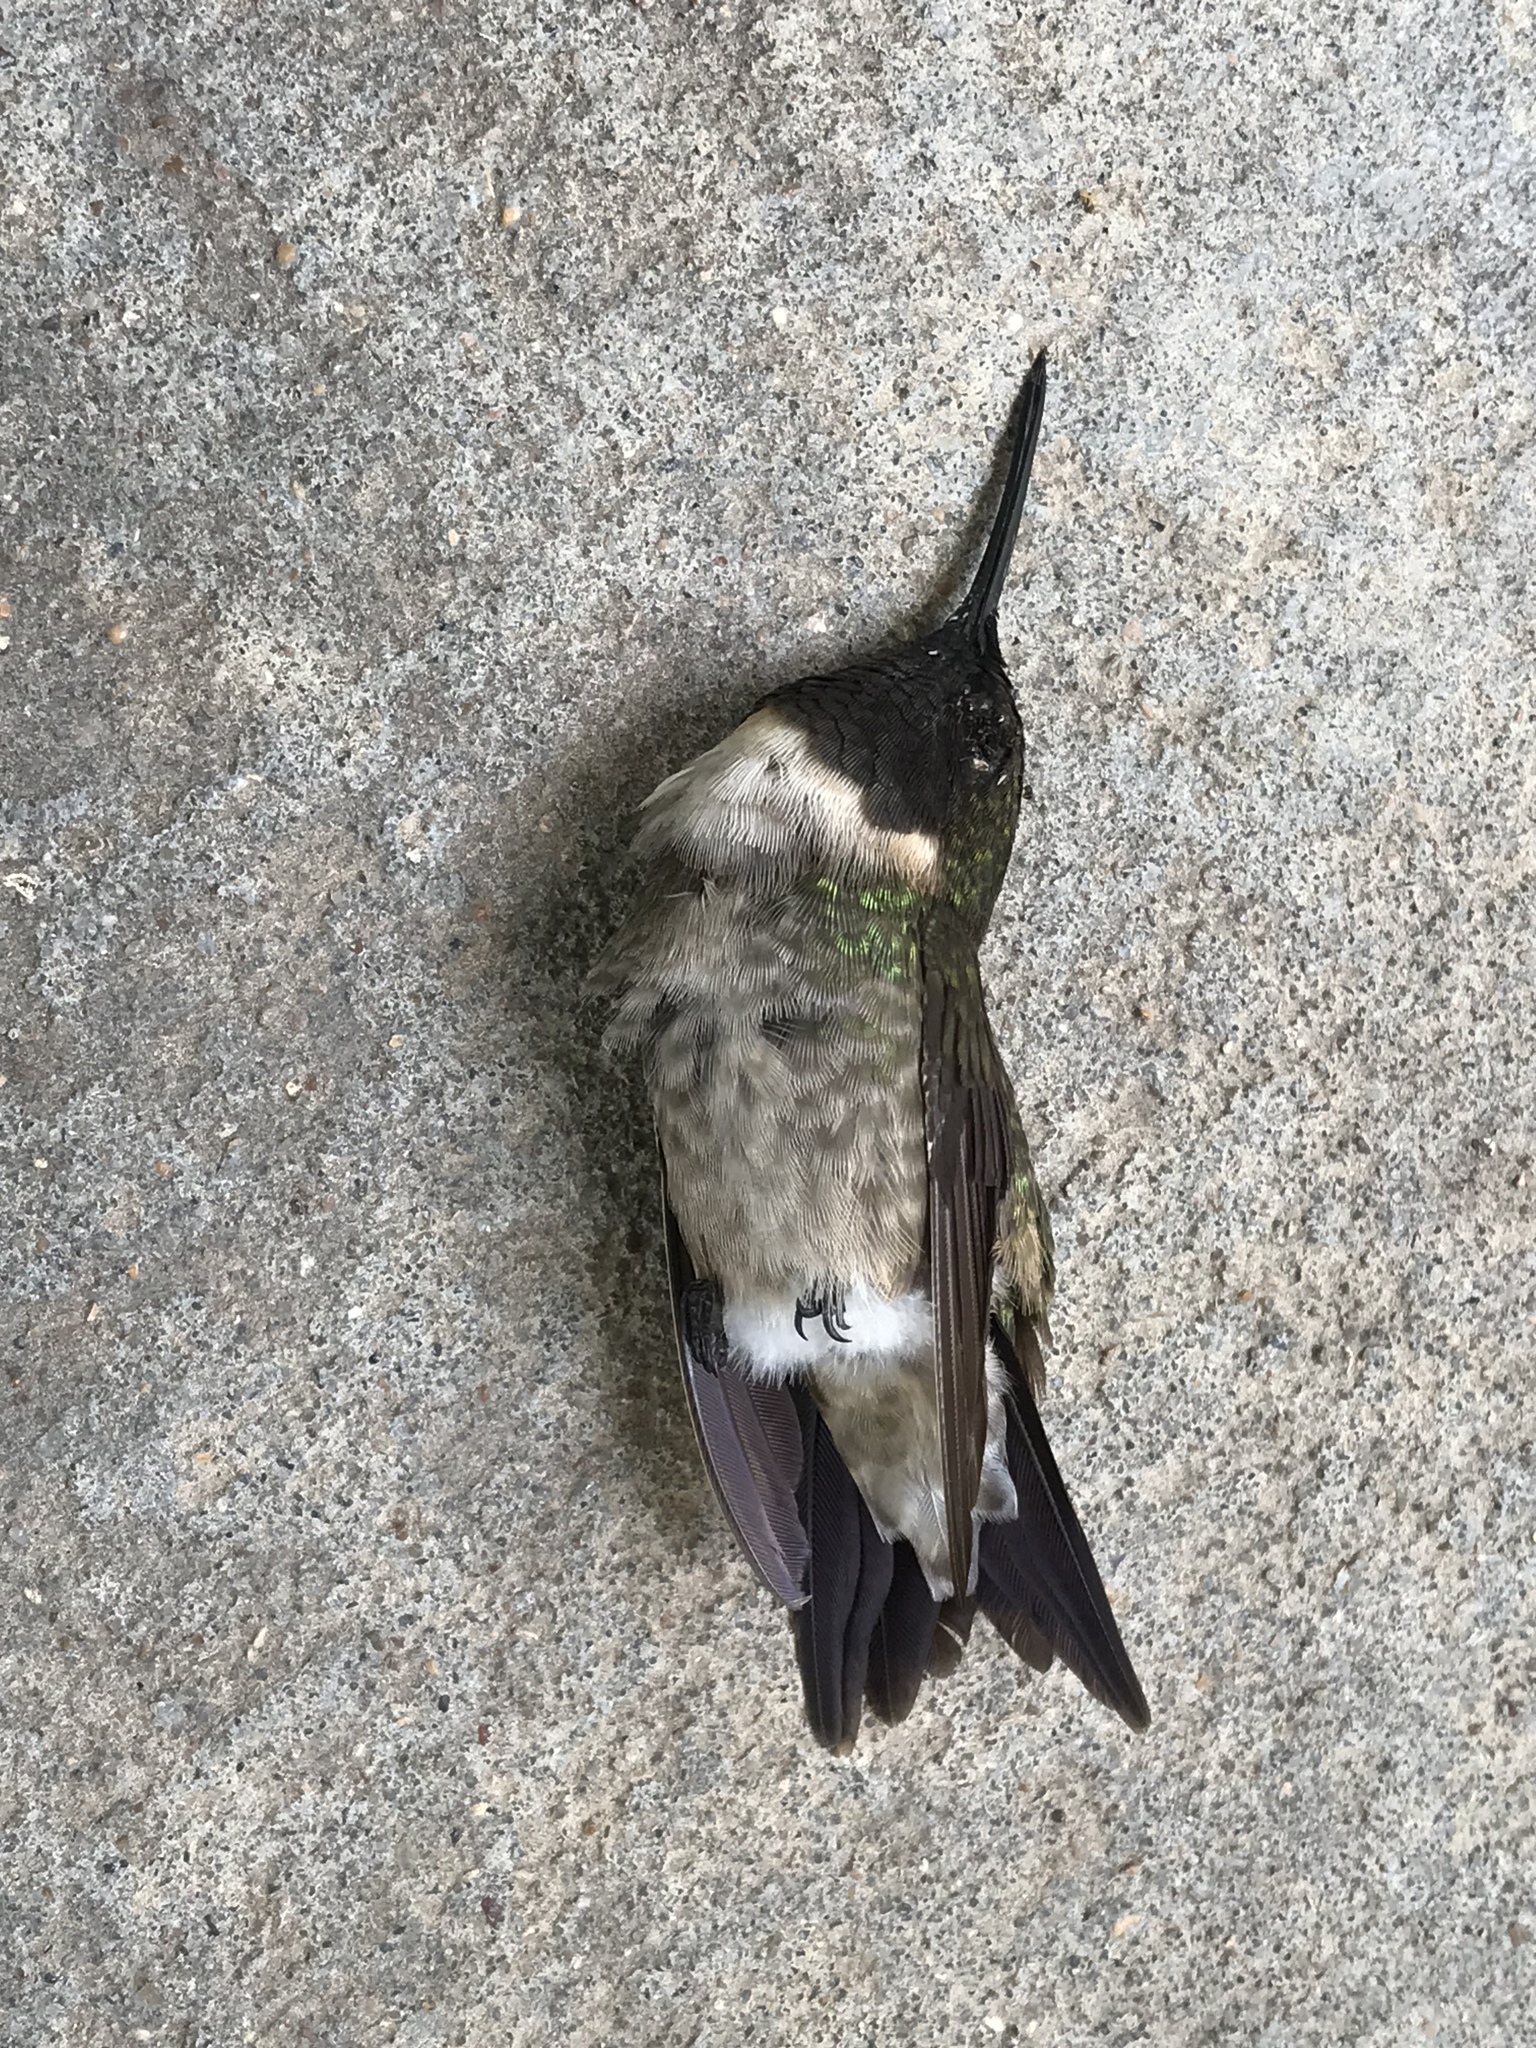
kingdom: Animalia
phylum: Chordata
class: Aves
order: Apodiformes
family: Trochilidae
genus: Archilochus
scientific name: Archilochus colubris
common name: Ruby-throated hummingbird
